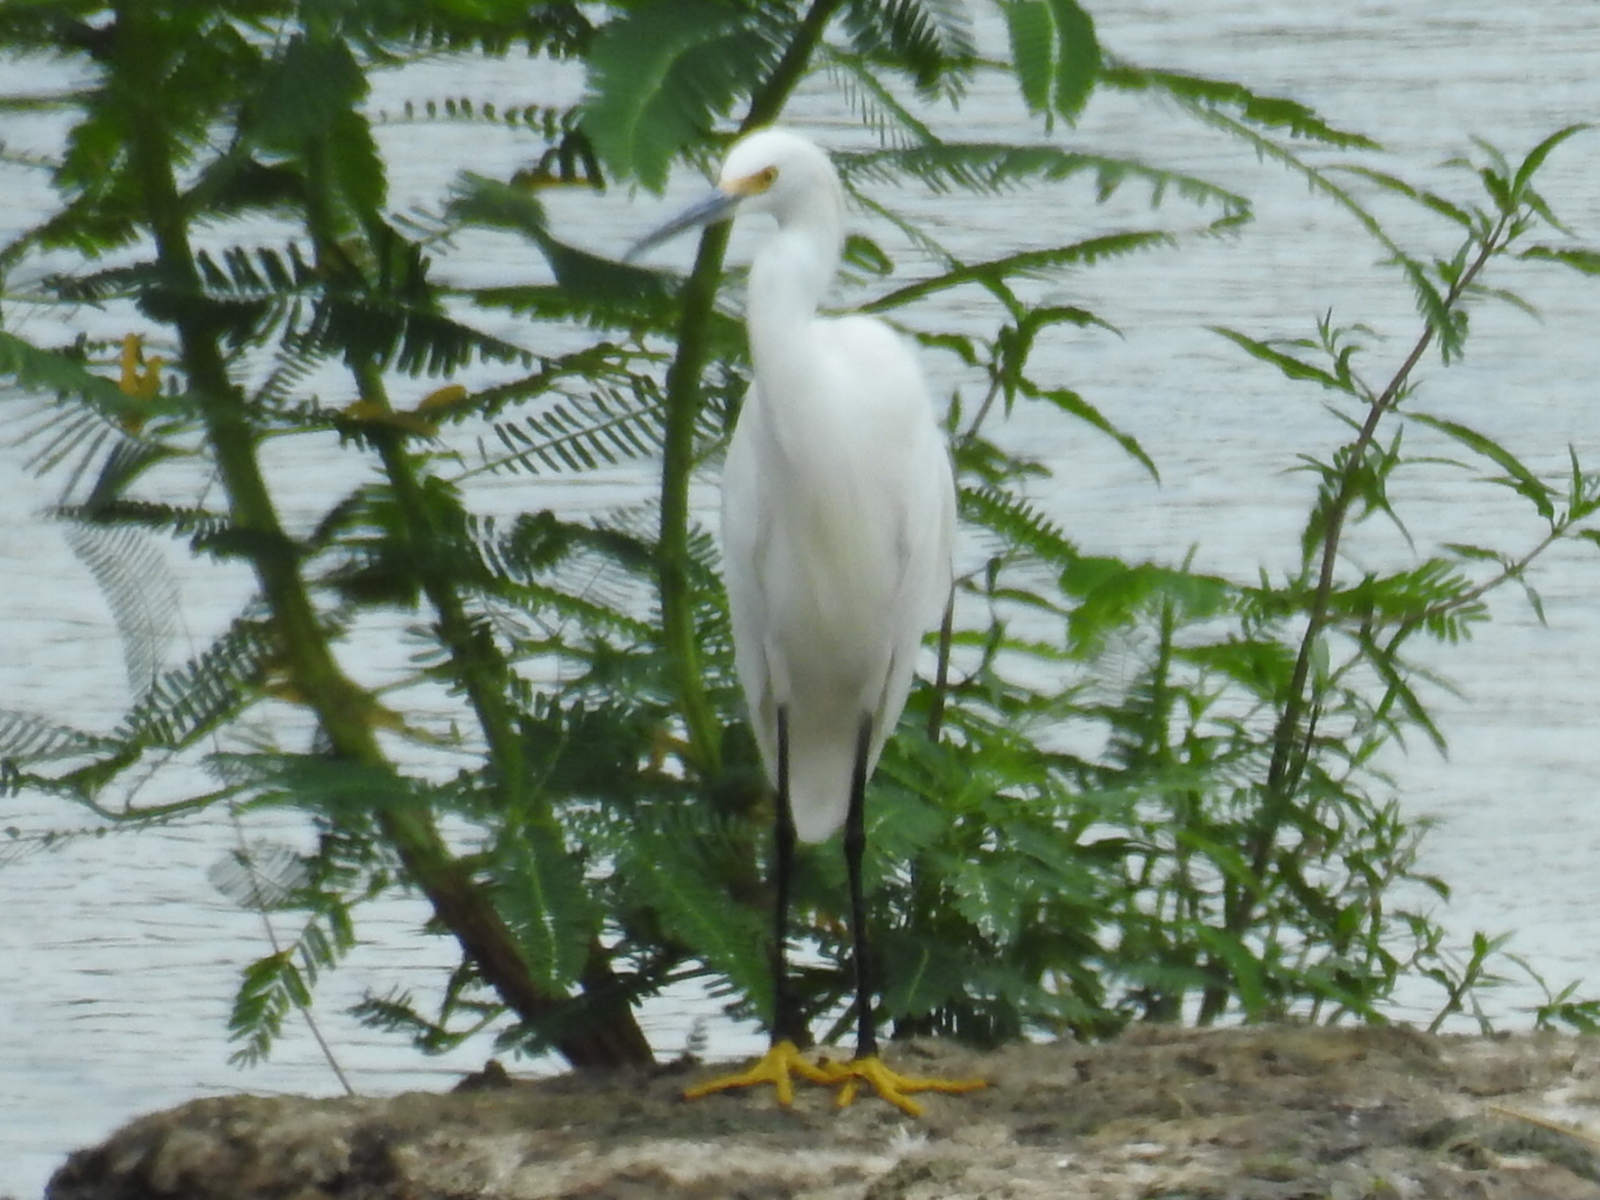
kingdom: Animalia
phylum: Chordata
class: Aves
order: Pelecaniformes
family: Ardeidae
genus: Egretta
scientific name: Egretta thula
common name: Snowy egret
